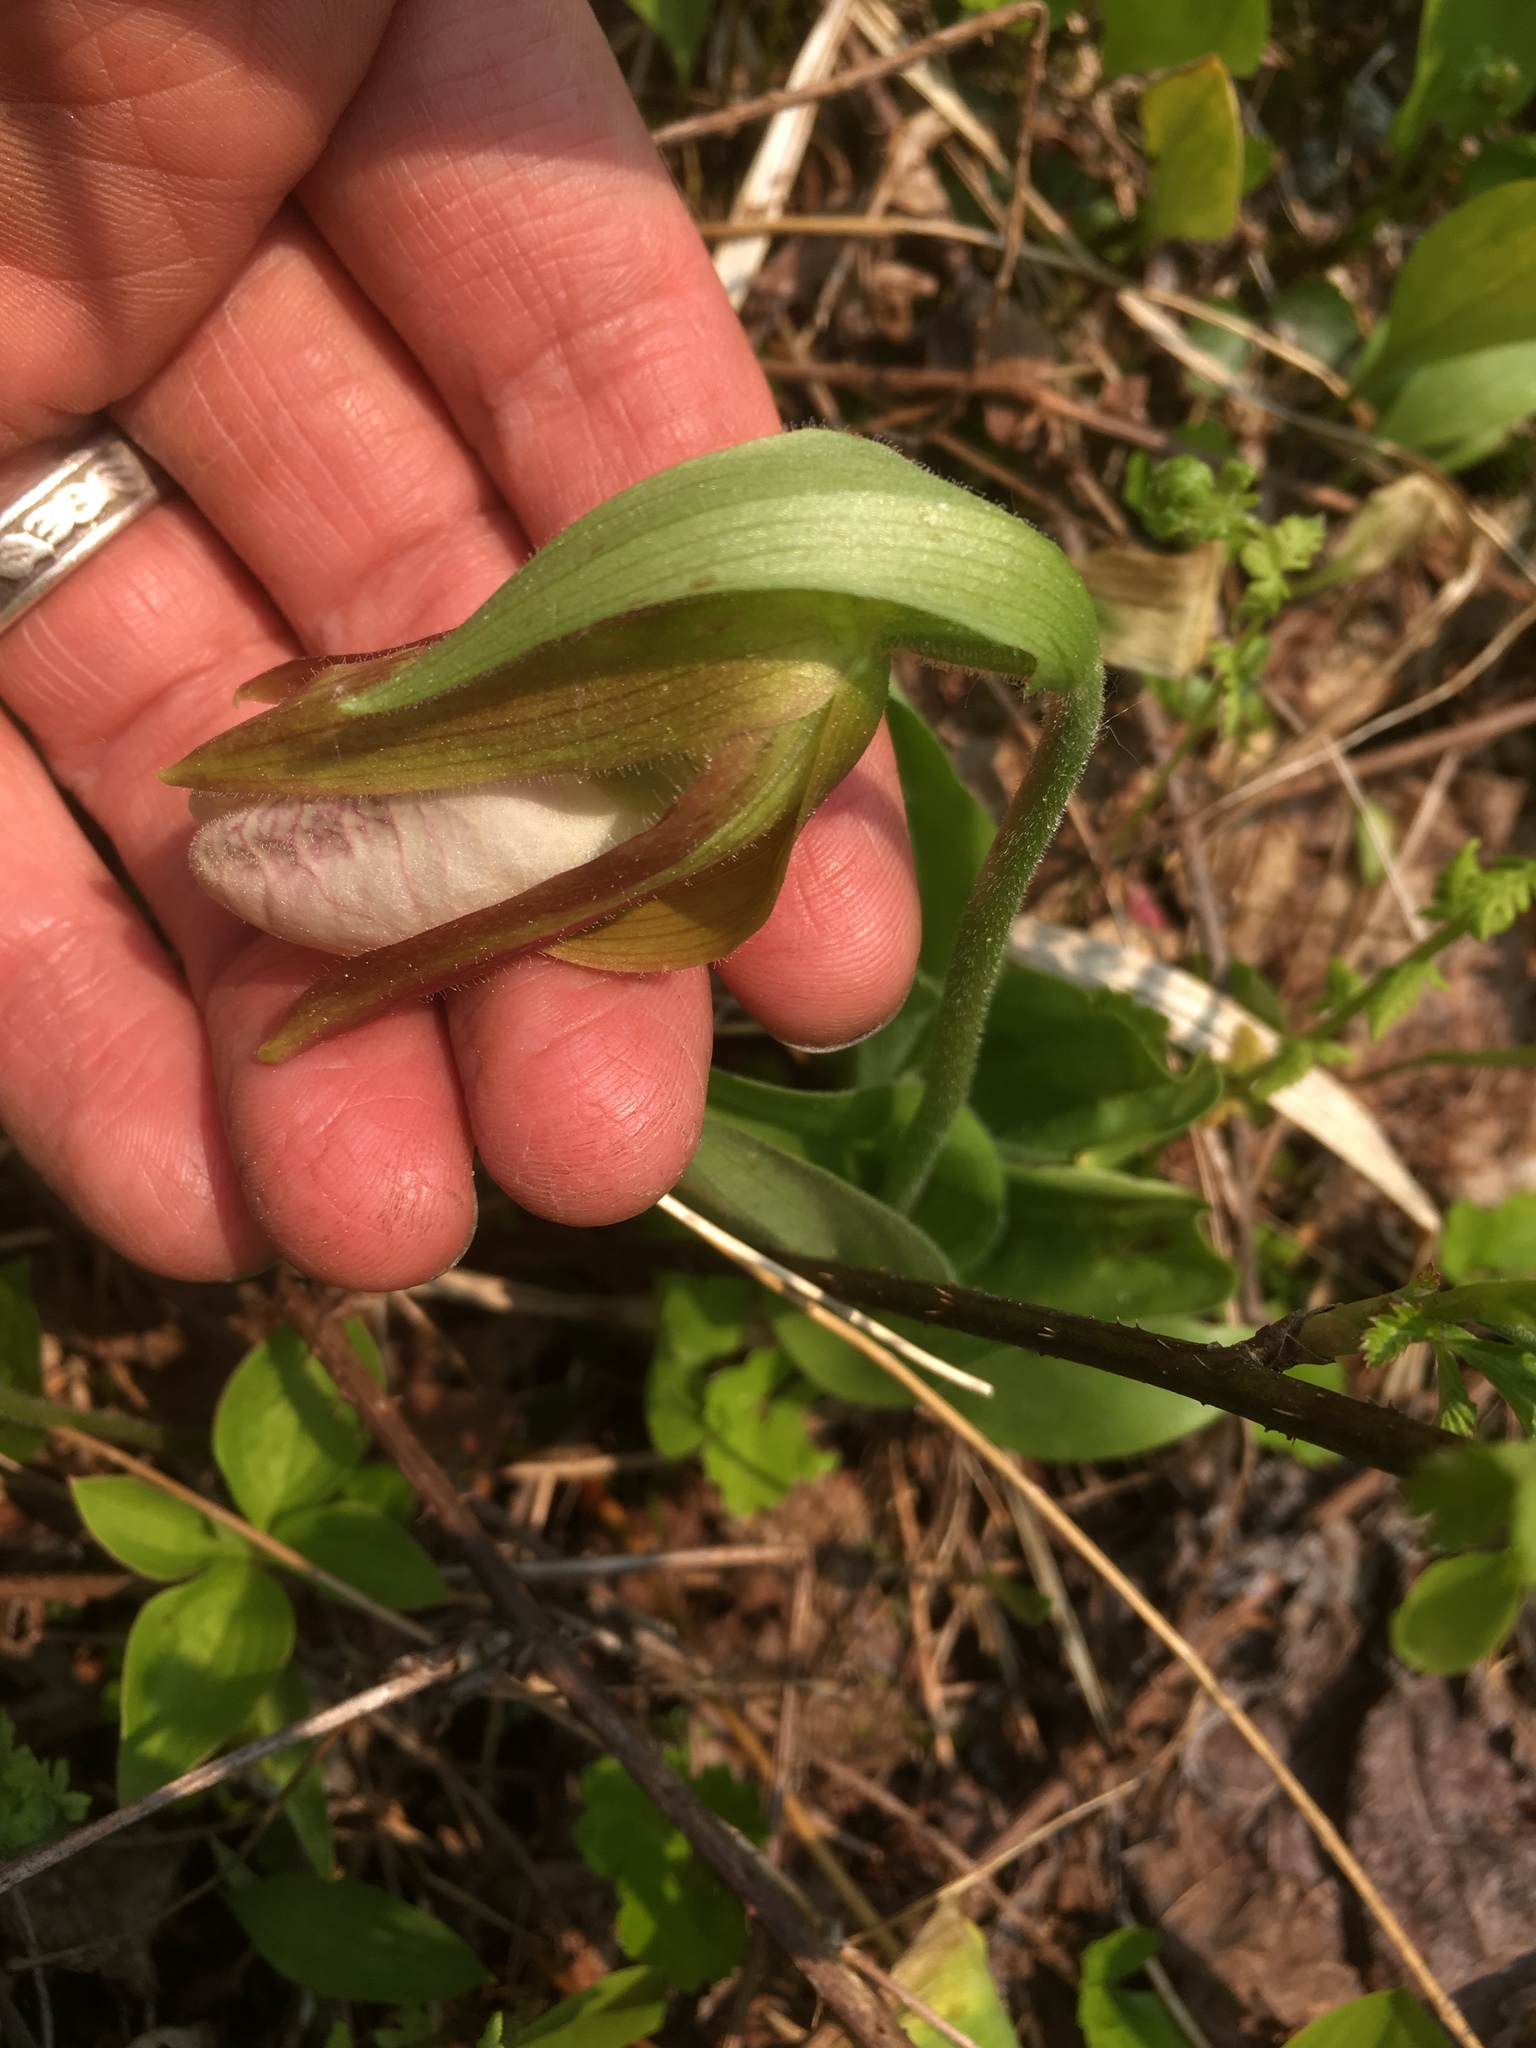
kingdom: Plantae
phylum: Tracheophyta
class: Liliopsida
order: Asparagales
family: Orchidaceae
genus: Cypripedium
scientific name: Cypripedium acaule
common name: Pink lady's-slipper
